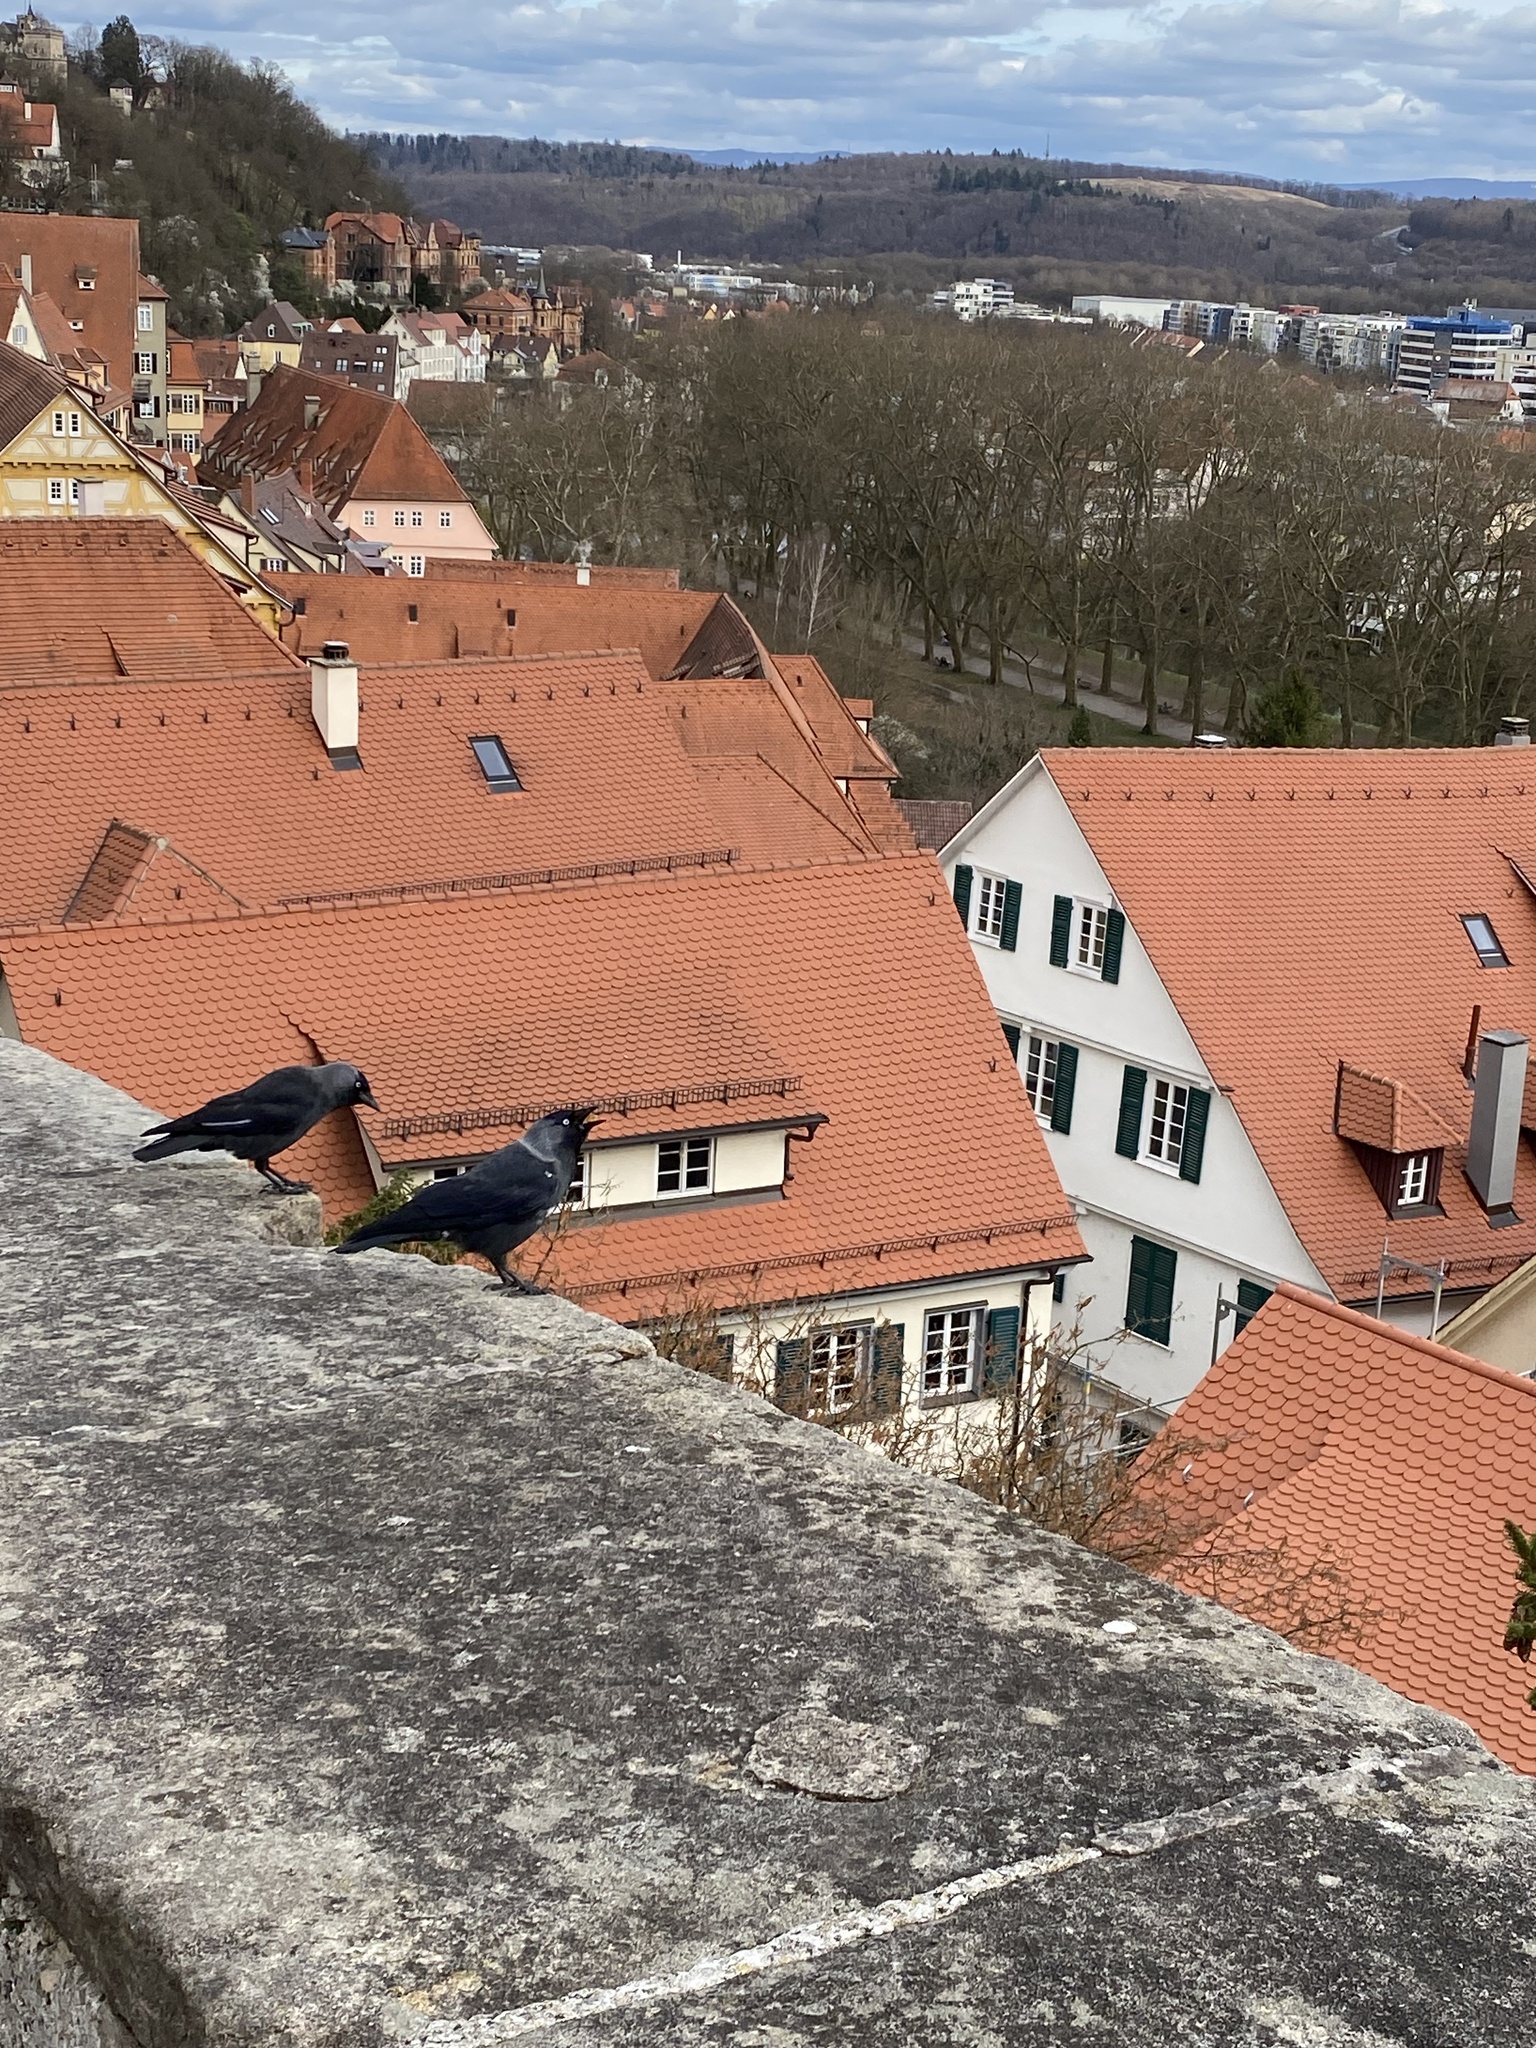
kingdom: Animalia
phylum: Chordata
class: Aves
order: Passeriformes
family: Corvidae
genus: Coloeus
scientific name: Coloeus monedula
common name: Western jackdaw
